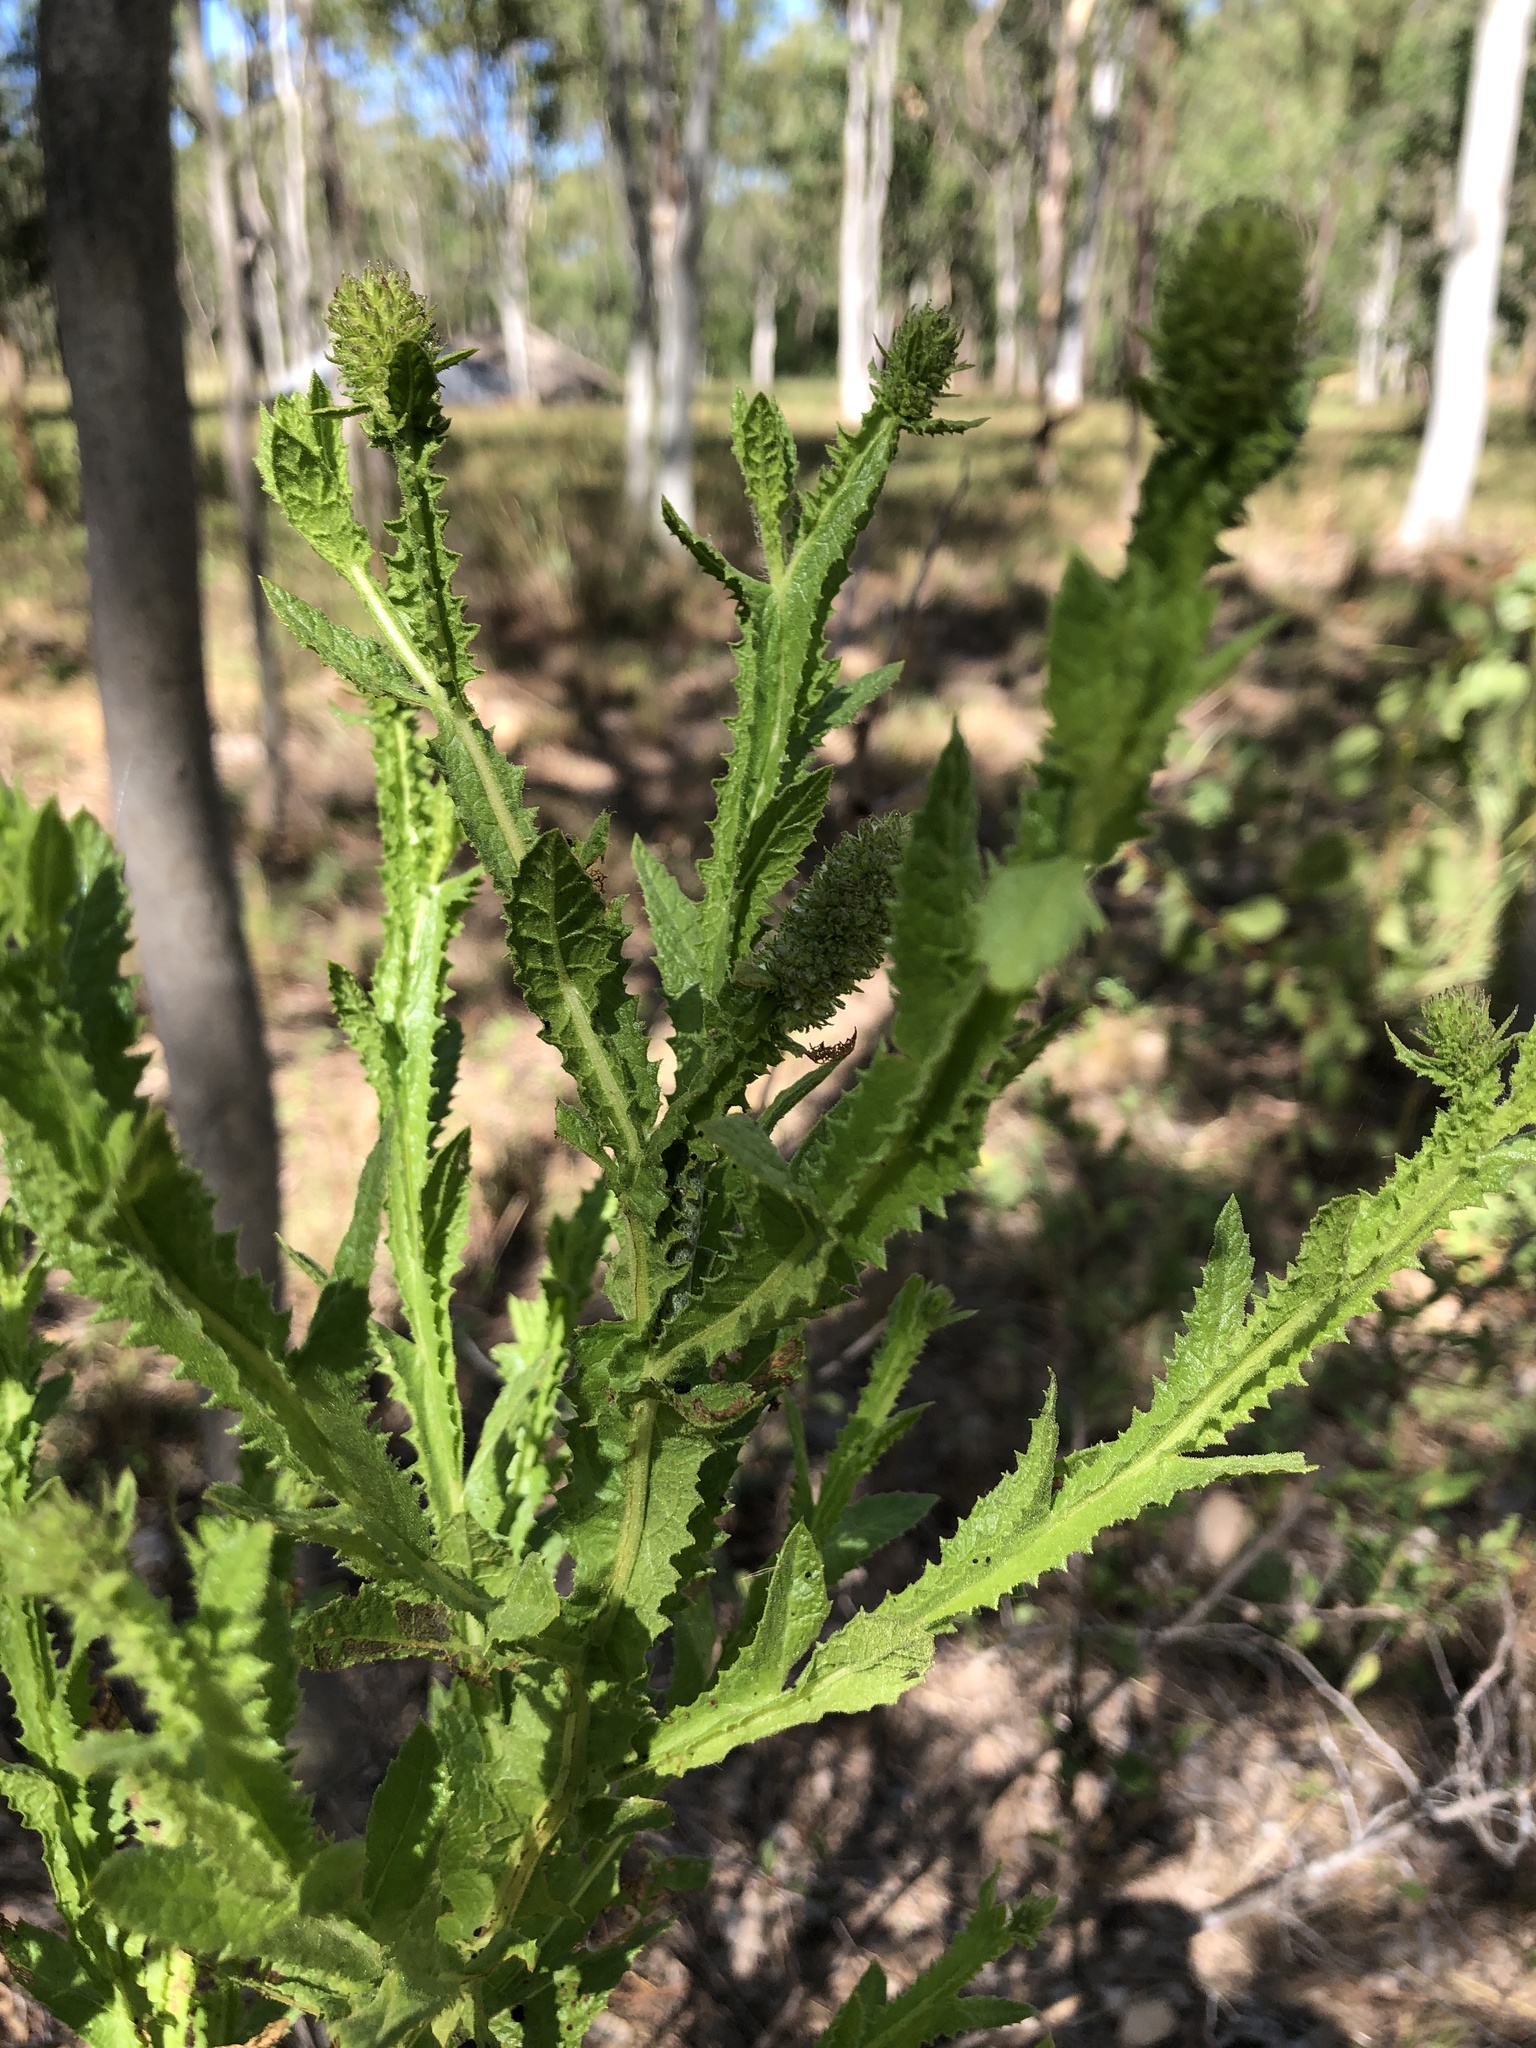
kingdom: Plantae
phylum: Tracheophyta
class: Magnoliopsida
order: Asterales
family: Asteraceae
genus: Pterocaulon
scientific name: Pterocaulon serrulatum
